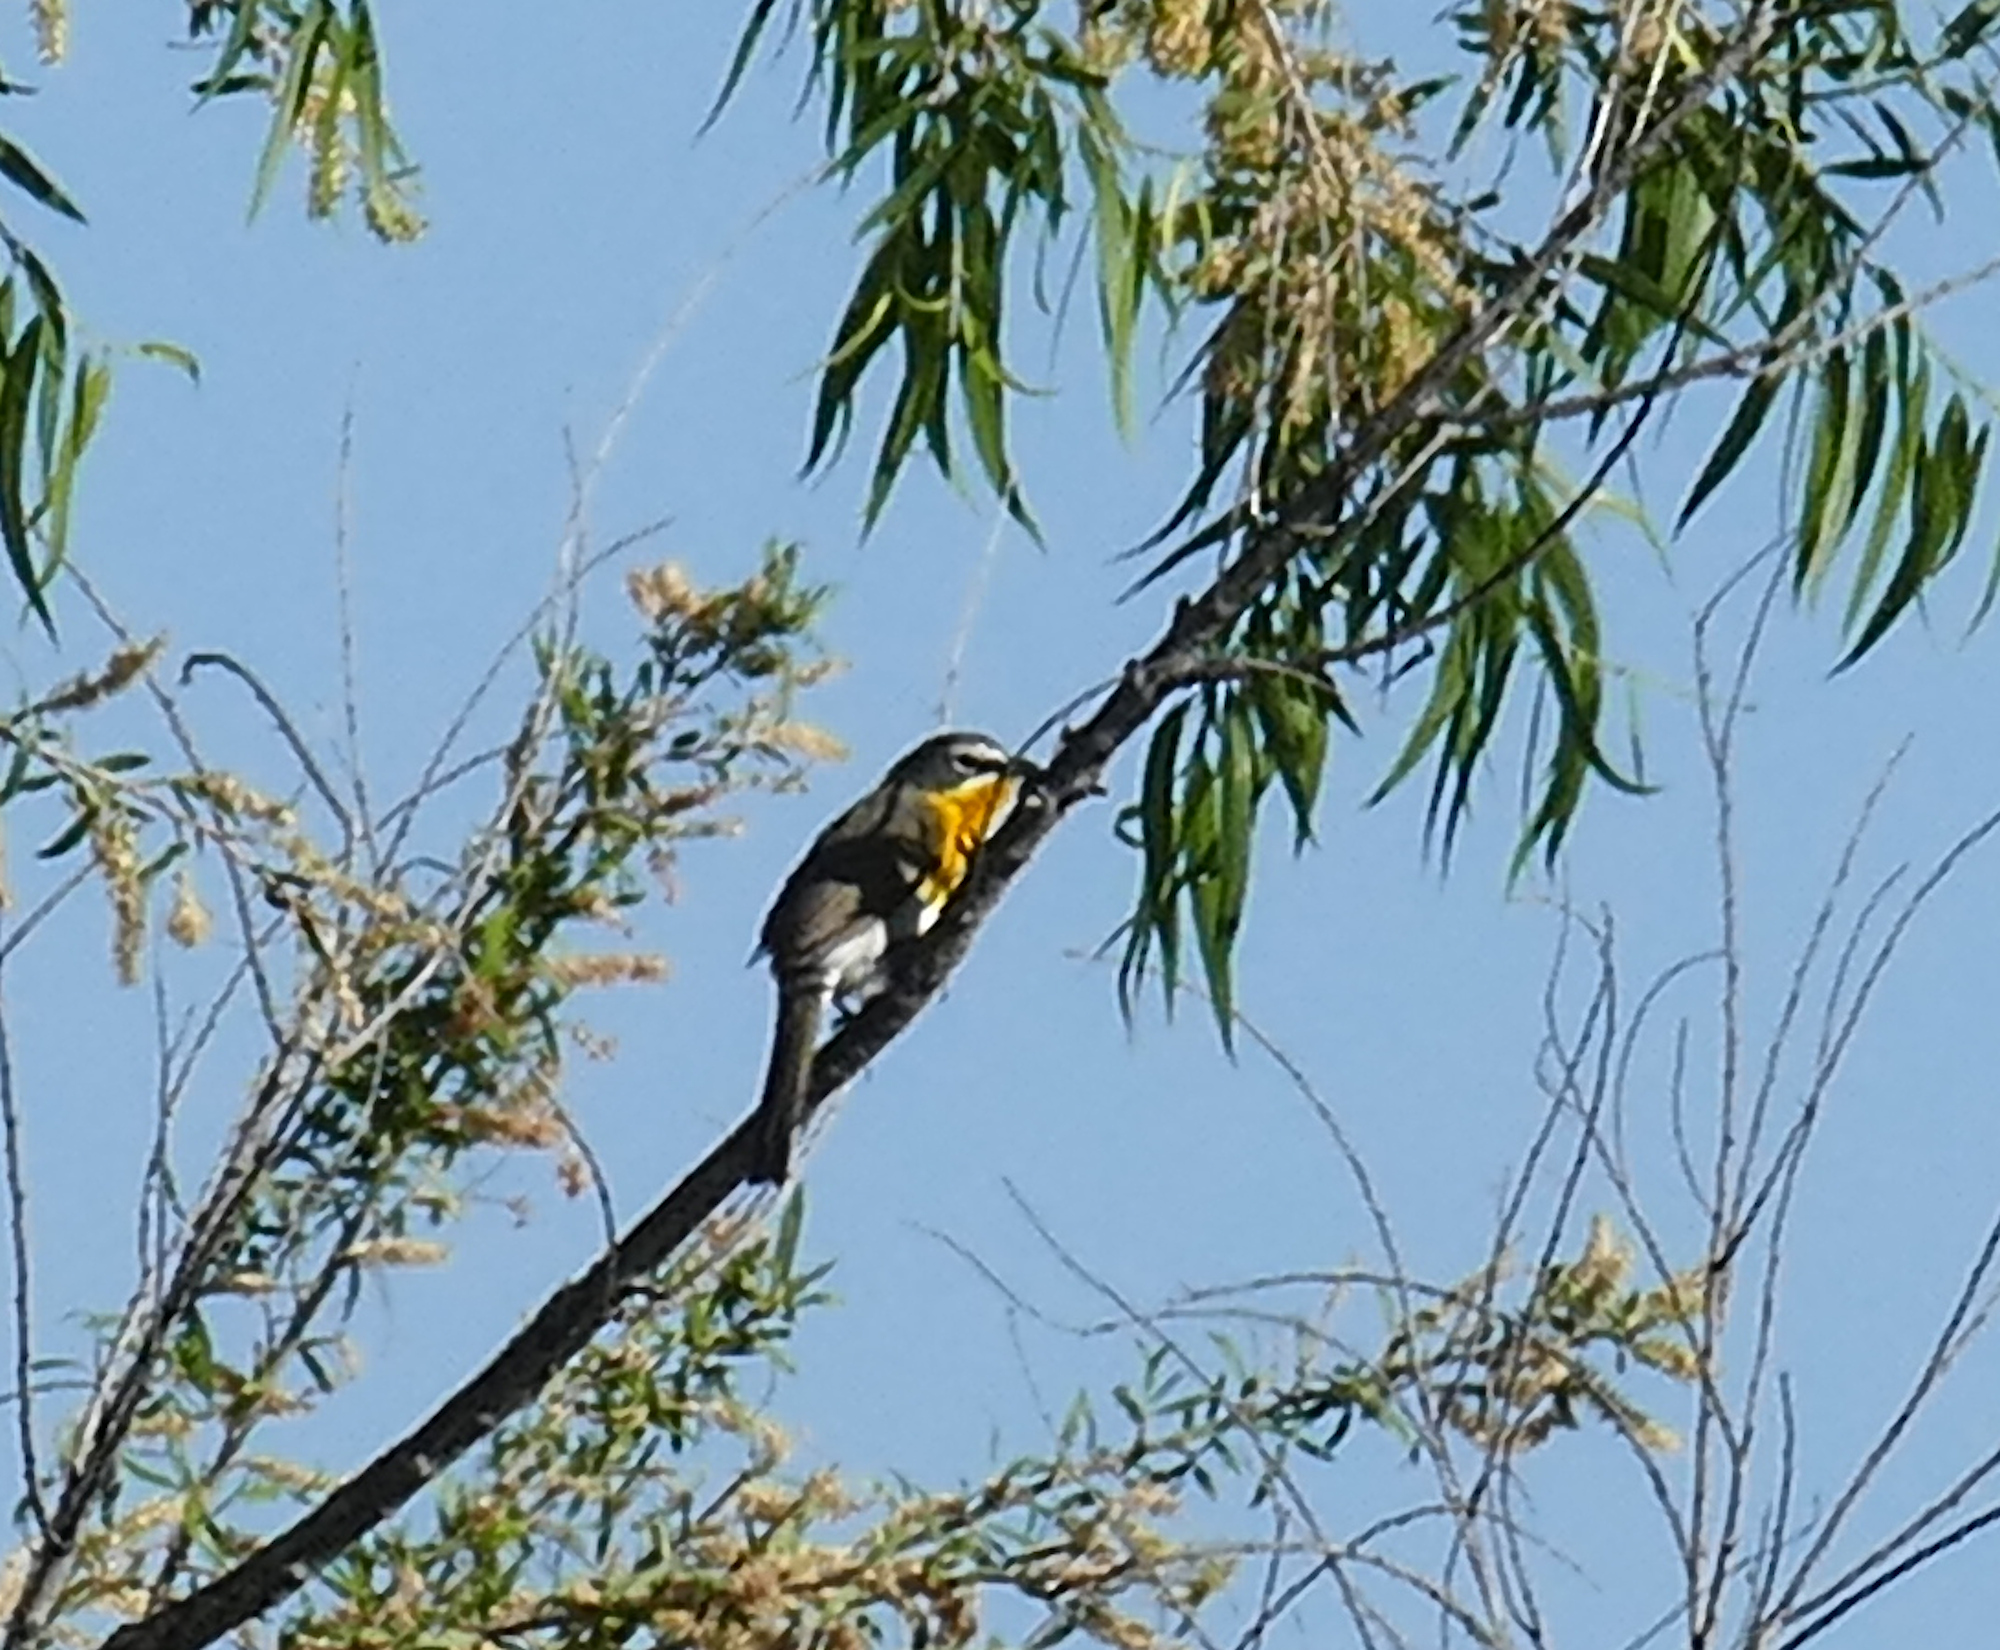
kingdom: Animalia
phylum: Chordata
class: Aves
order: Passeriformes
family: Parulidae
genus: Icteria
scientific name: Icteria virens
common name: Yellow-breasted chat
